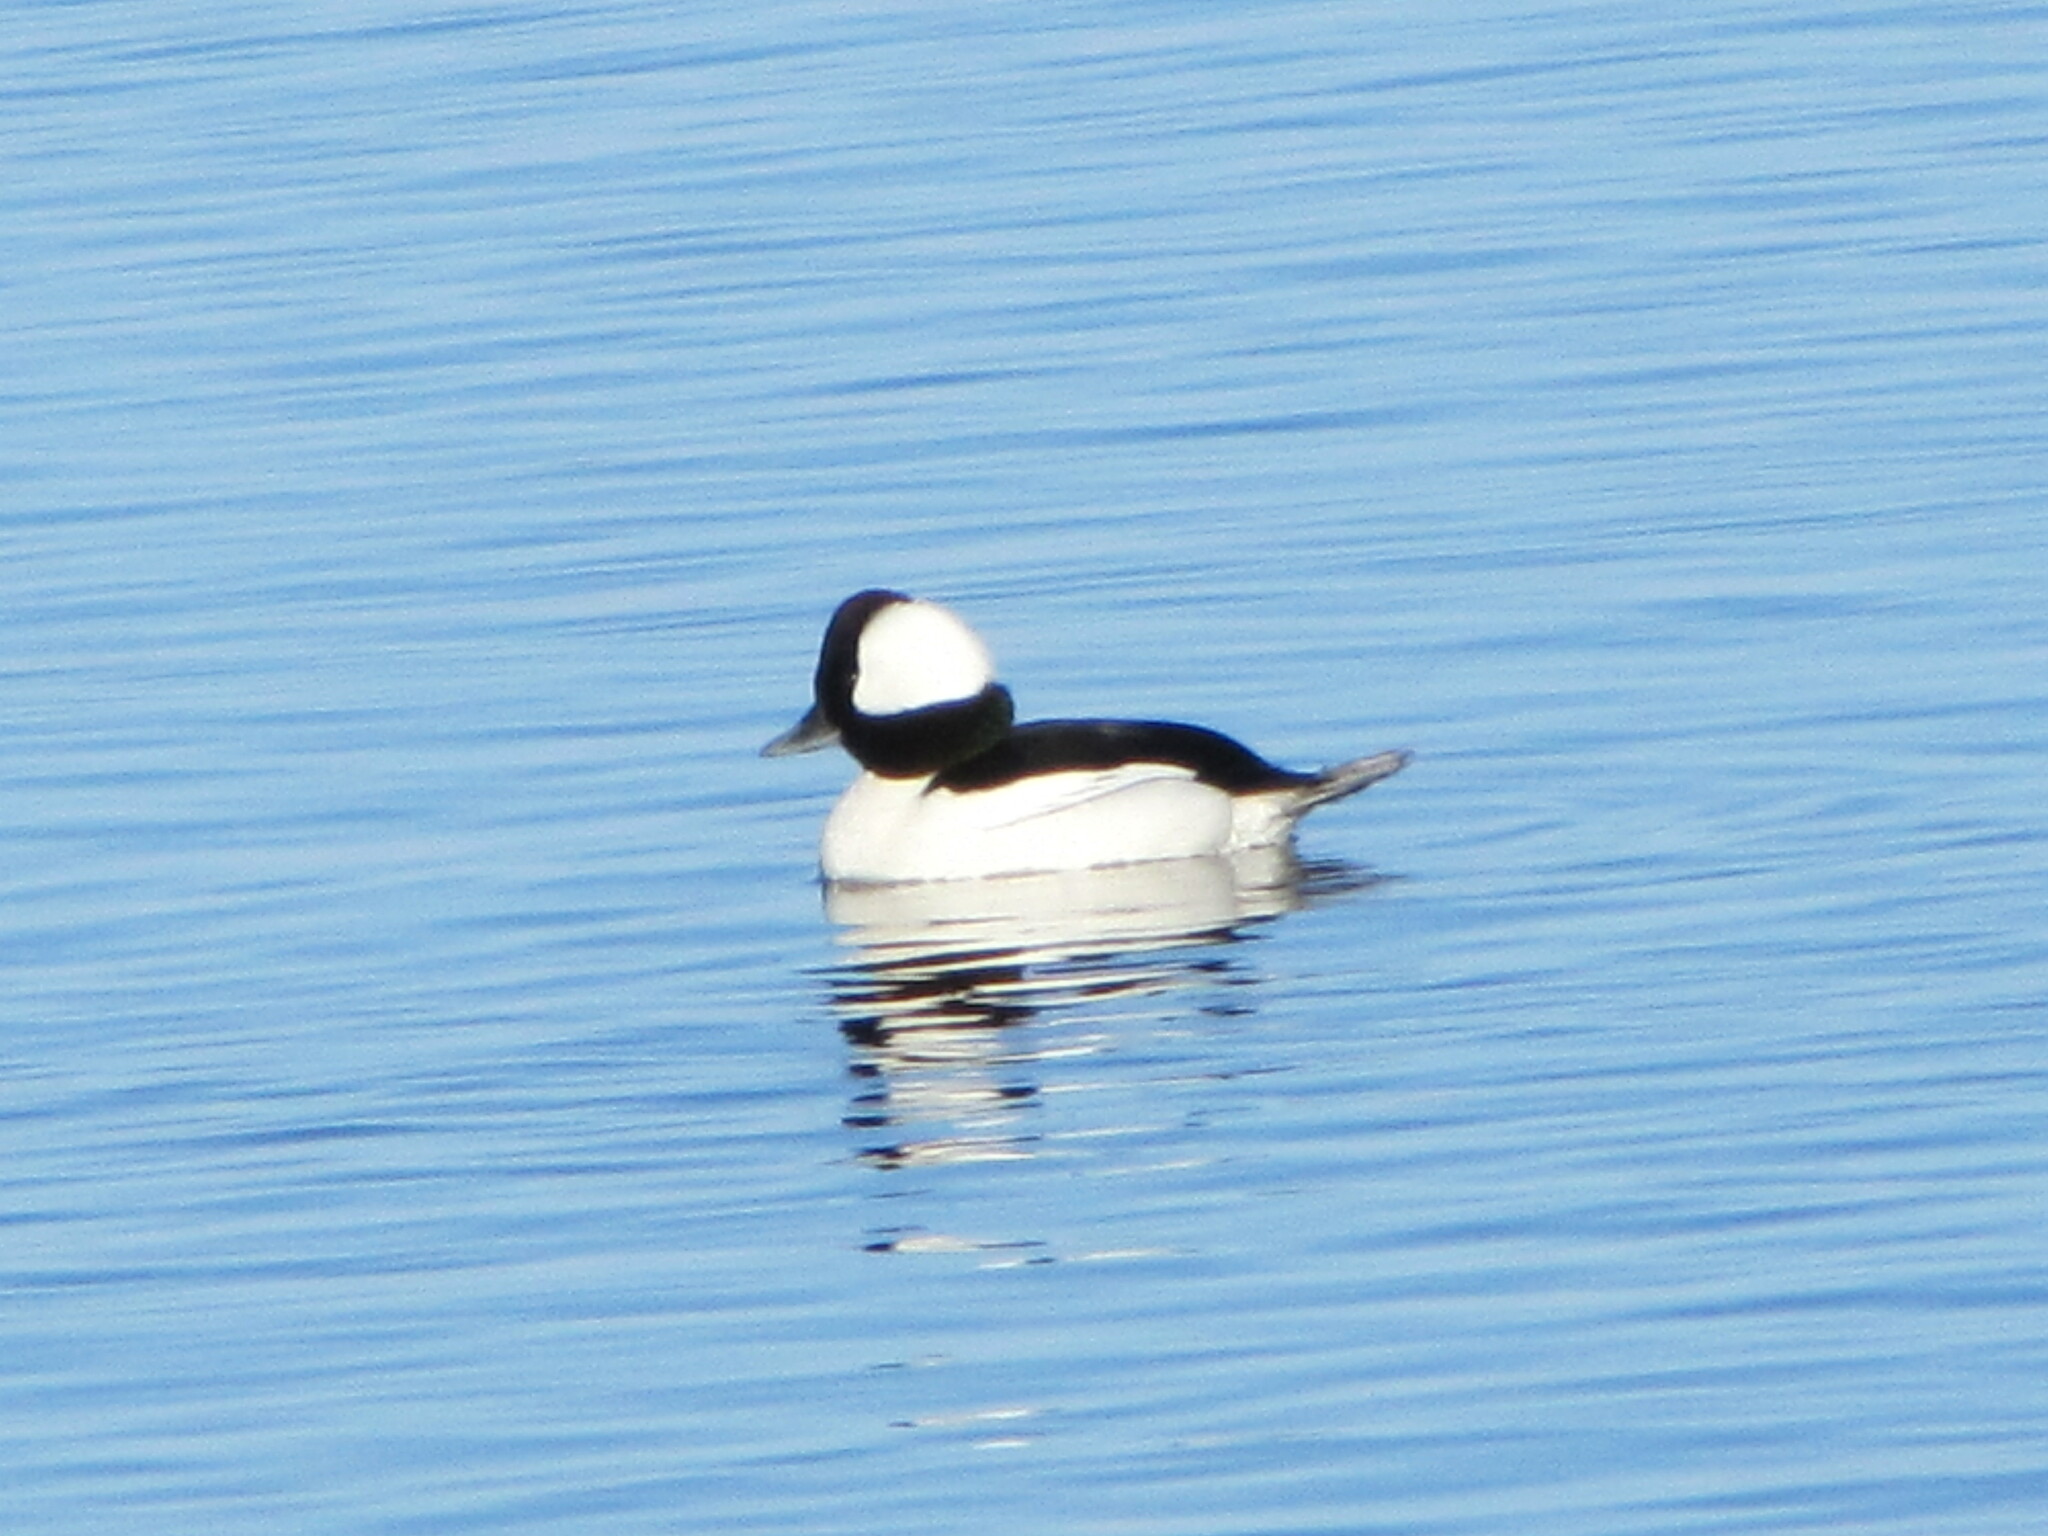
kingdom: Animalia
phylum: Chordata
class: Aves
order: Anseriformes
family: Anatidae
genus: Bucephala
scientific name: Bucephala albeola
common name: Bufflehead
